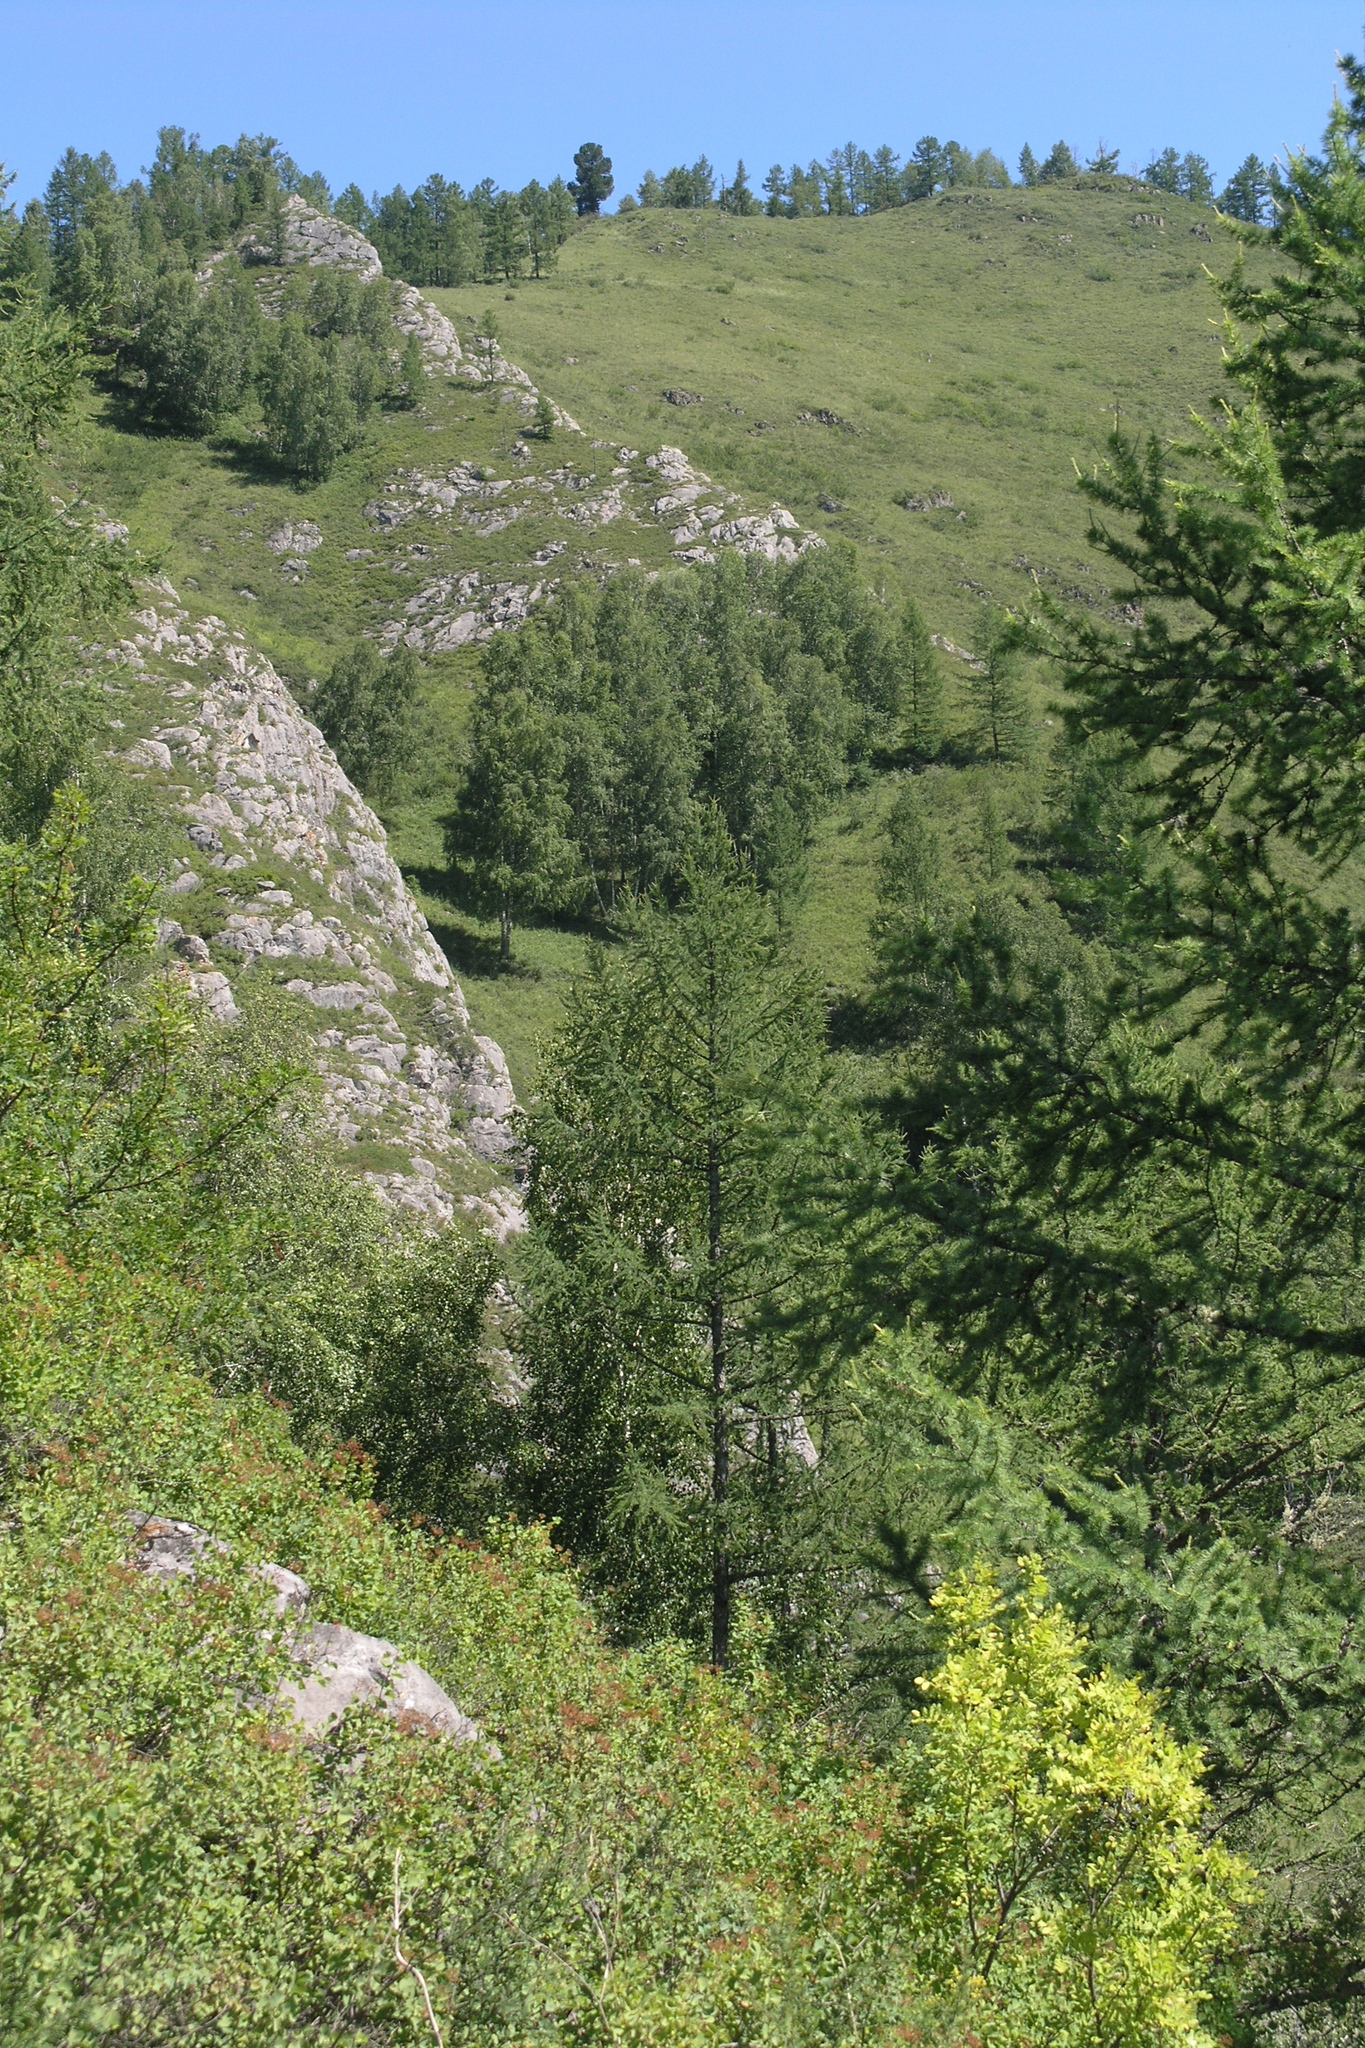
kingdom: Plantae
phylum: Tracheophyta
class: Pinopsida
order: Pinales
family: Pinaceae
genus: Larix
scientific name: Larix sibirica
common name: Siberian larch
